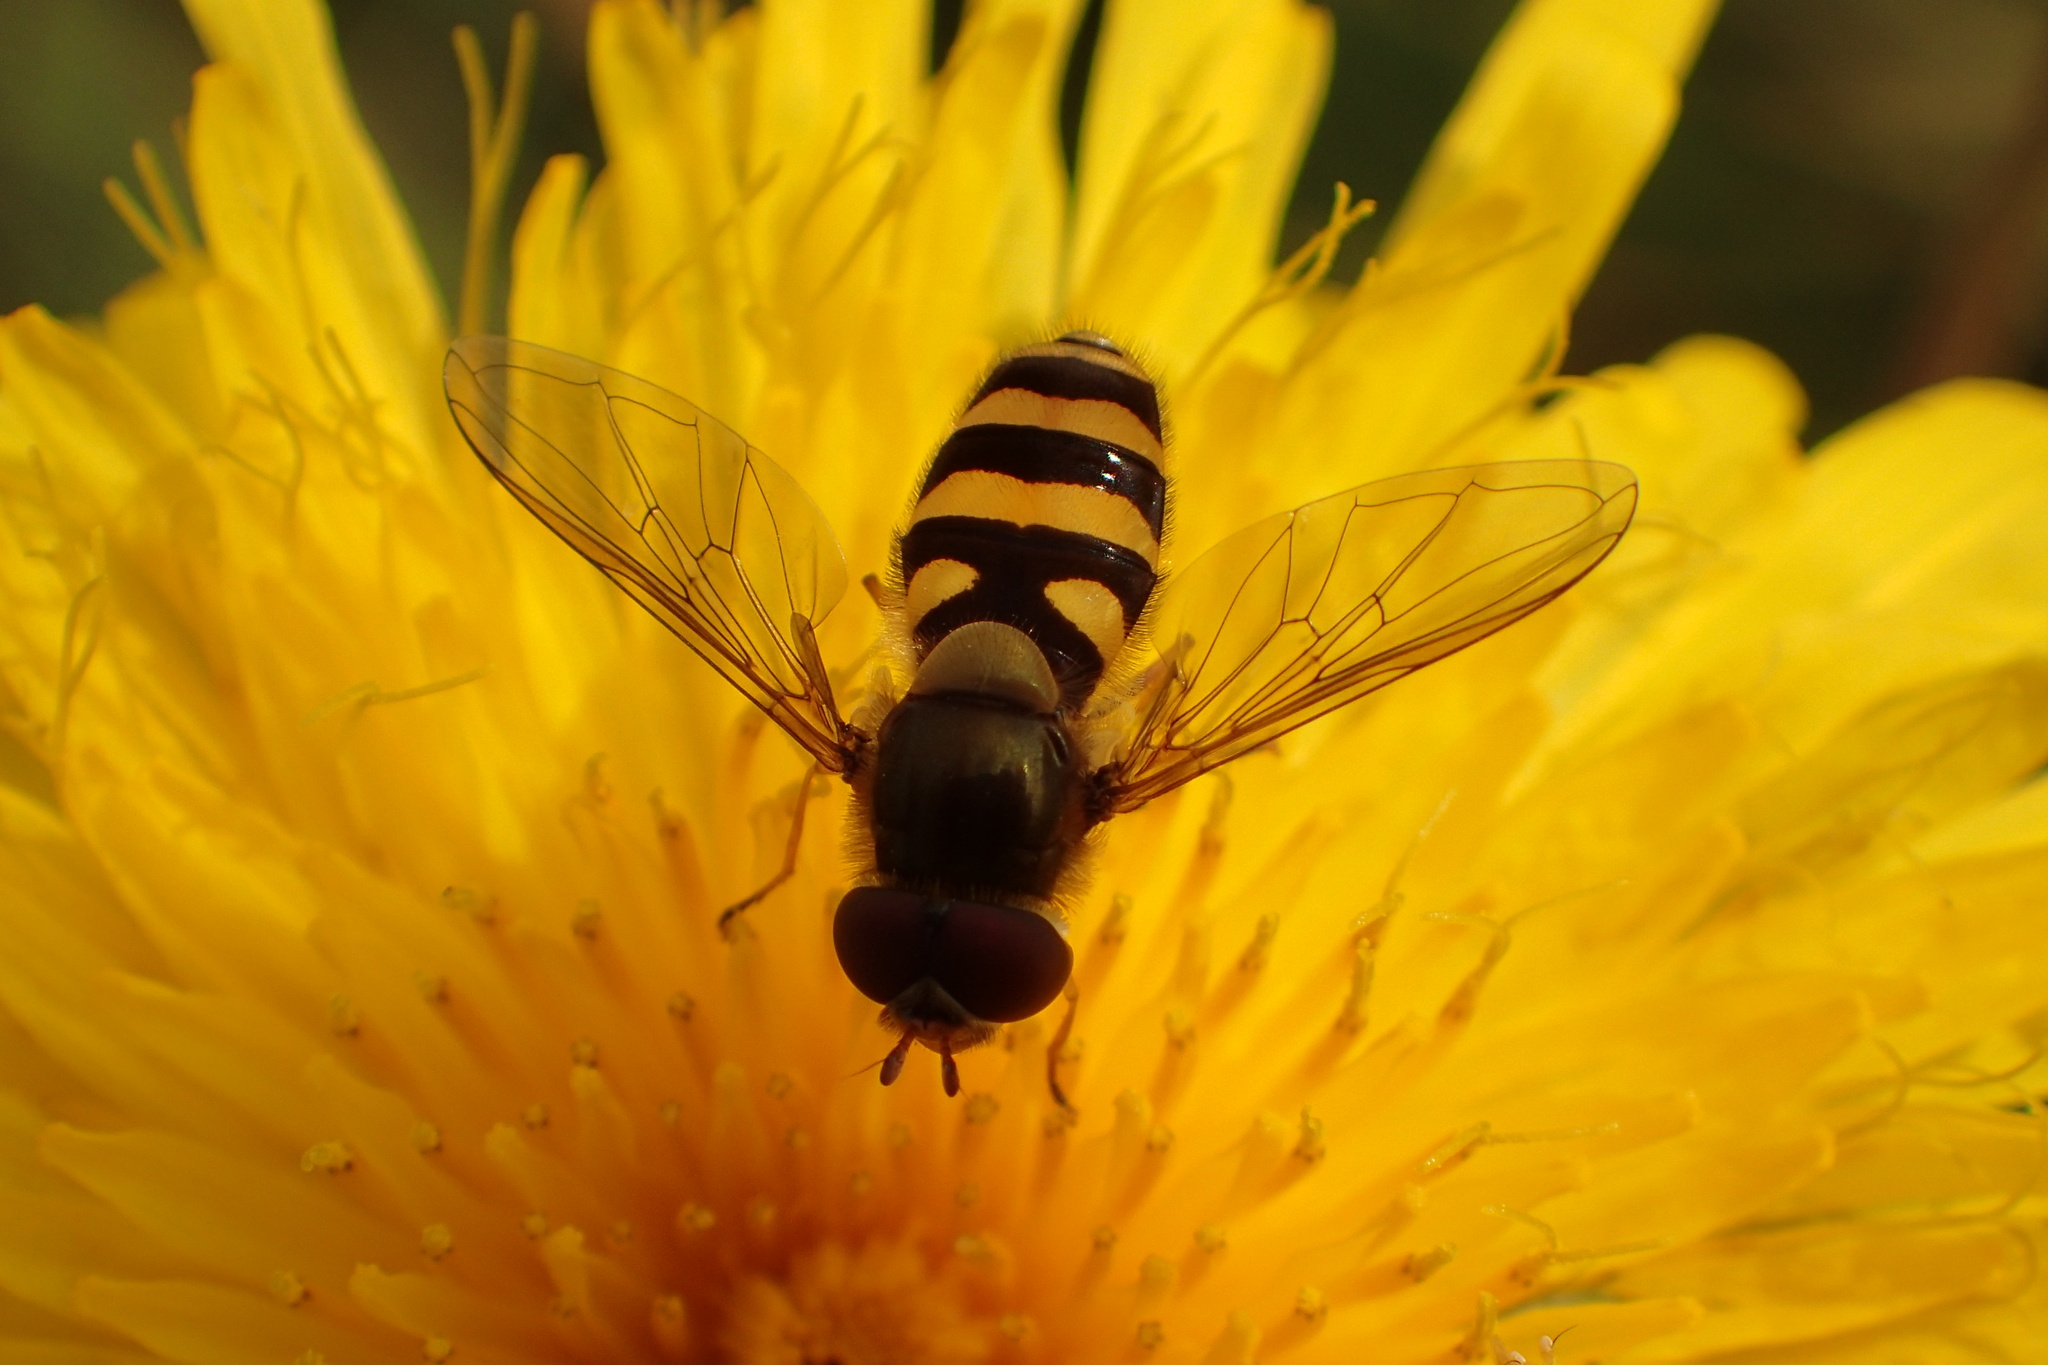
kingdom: Animalia
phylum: Arthropoda
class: Insecta
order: Diptera
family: Syrphidae
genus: Syrphus
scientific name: Syrphus
